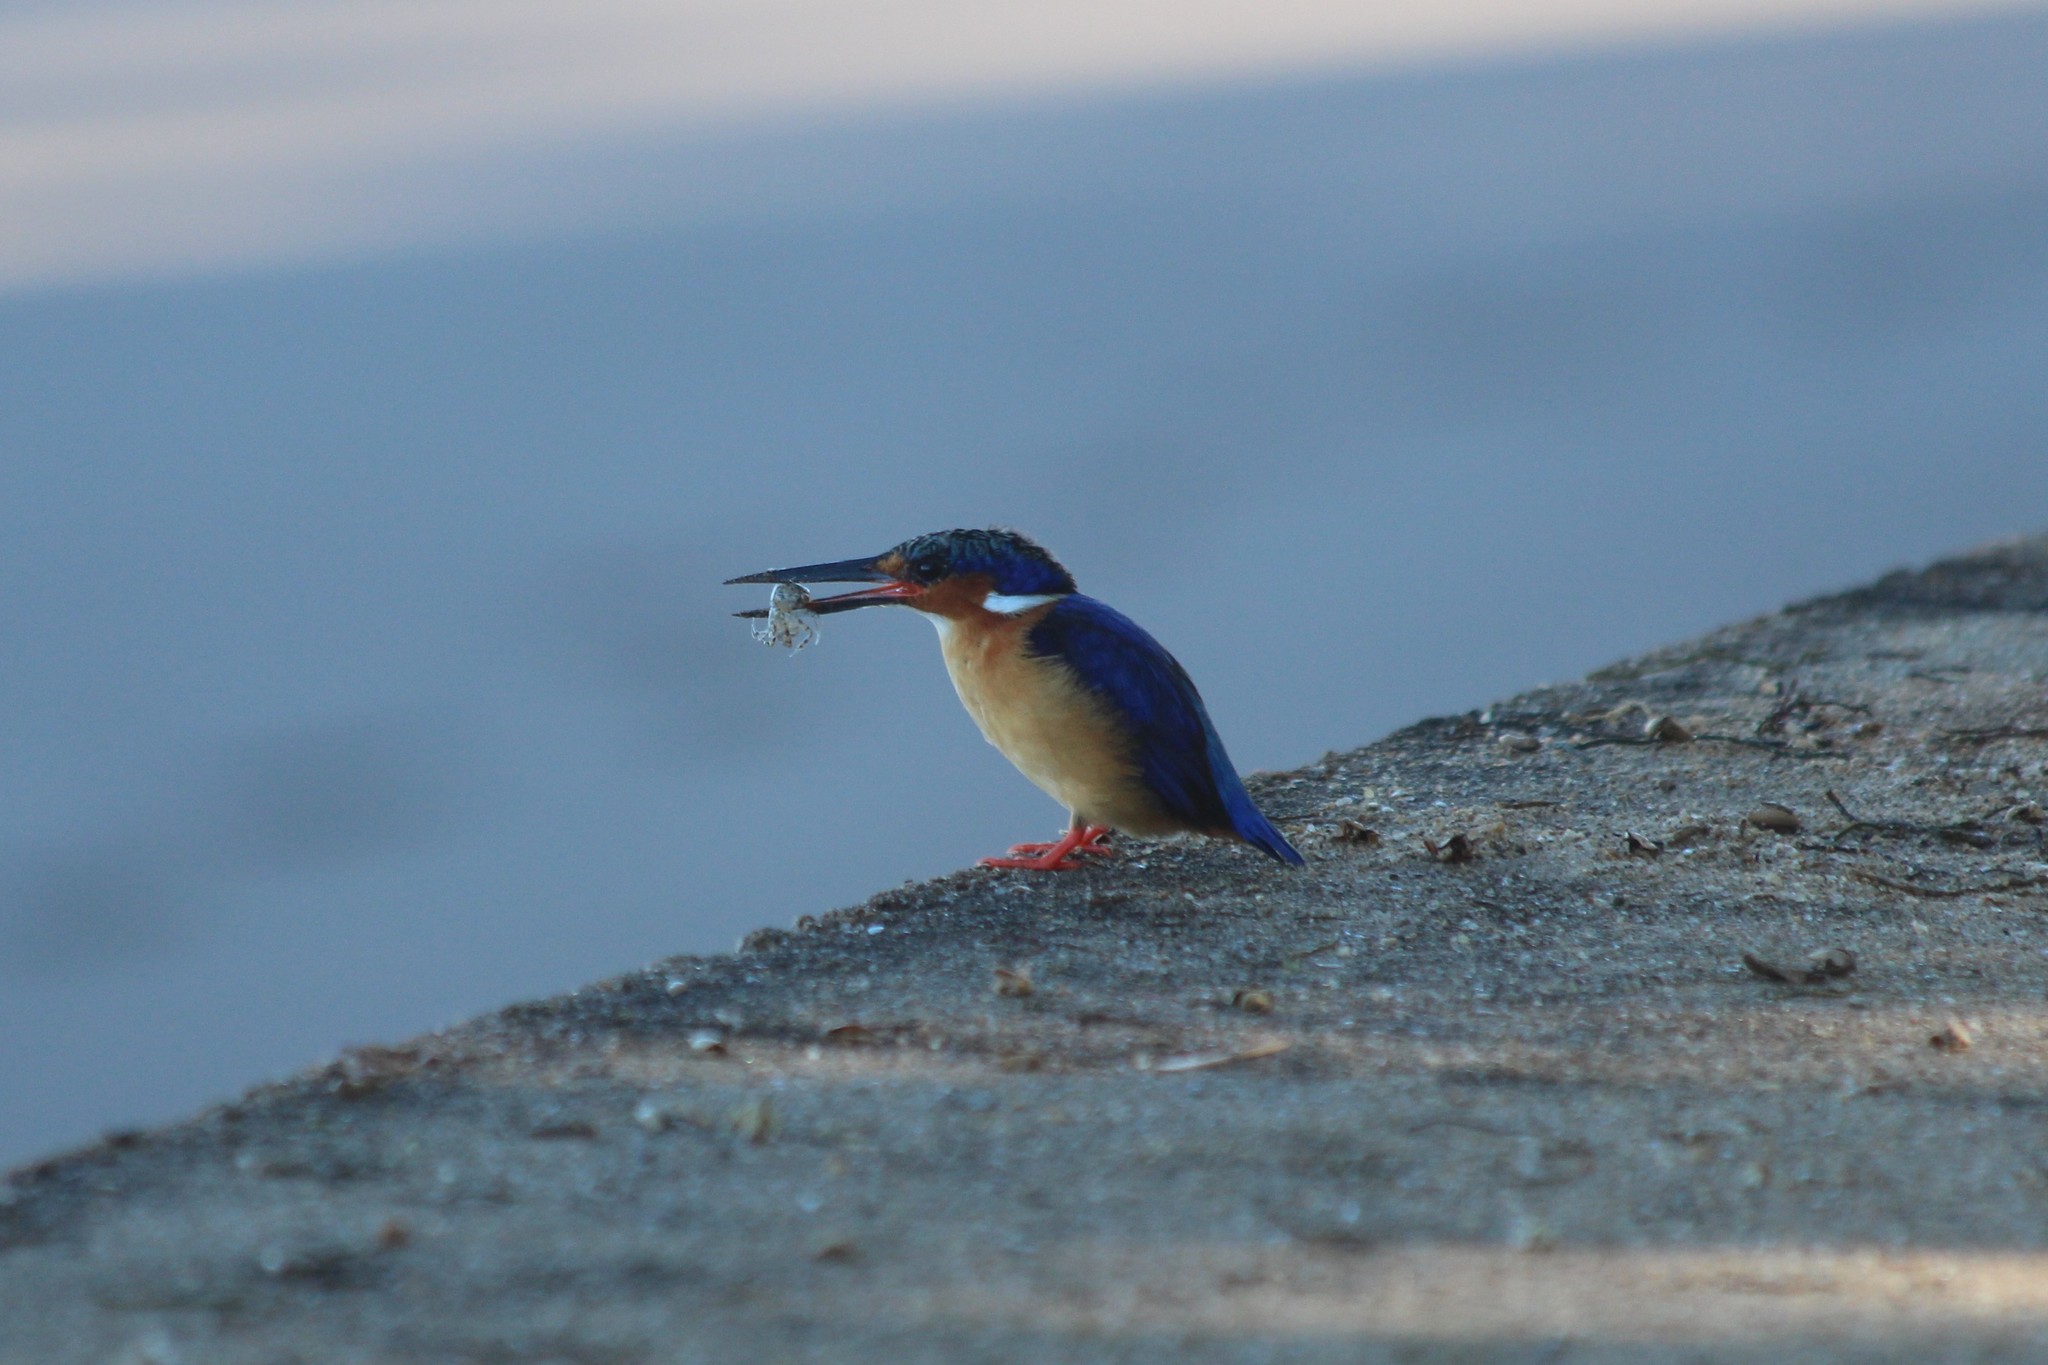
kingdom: Animalia
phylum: Chordata
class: Aves
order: Coraciiformes
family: Alcedinidae
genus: Corythornis
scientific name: Corythornis vintsioides
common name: Malagasy kingfisher
